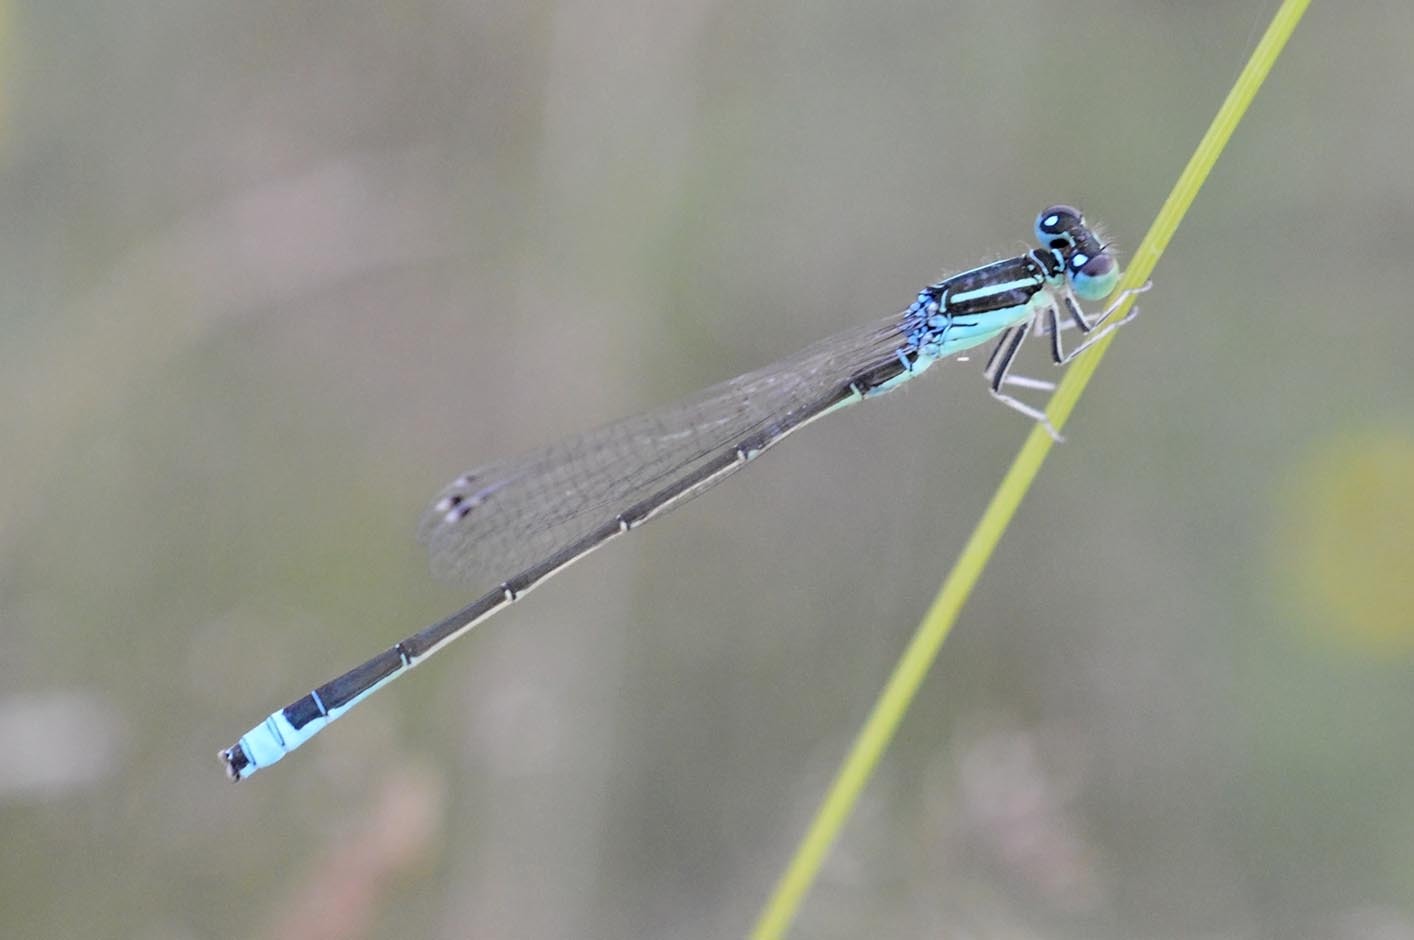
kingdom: Animalia
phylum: Arthropoda
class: Insecta
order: Odonata
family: Coenagrionidae
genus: Ischnura
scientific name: Ischnura pumilio
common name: Scarce blue-tailed damselfly
